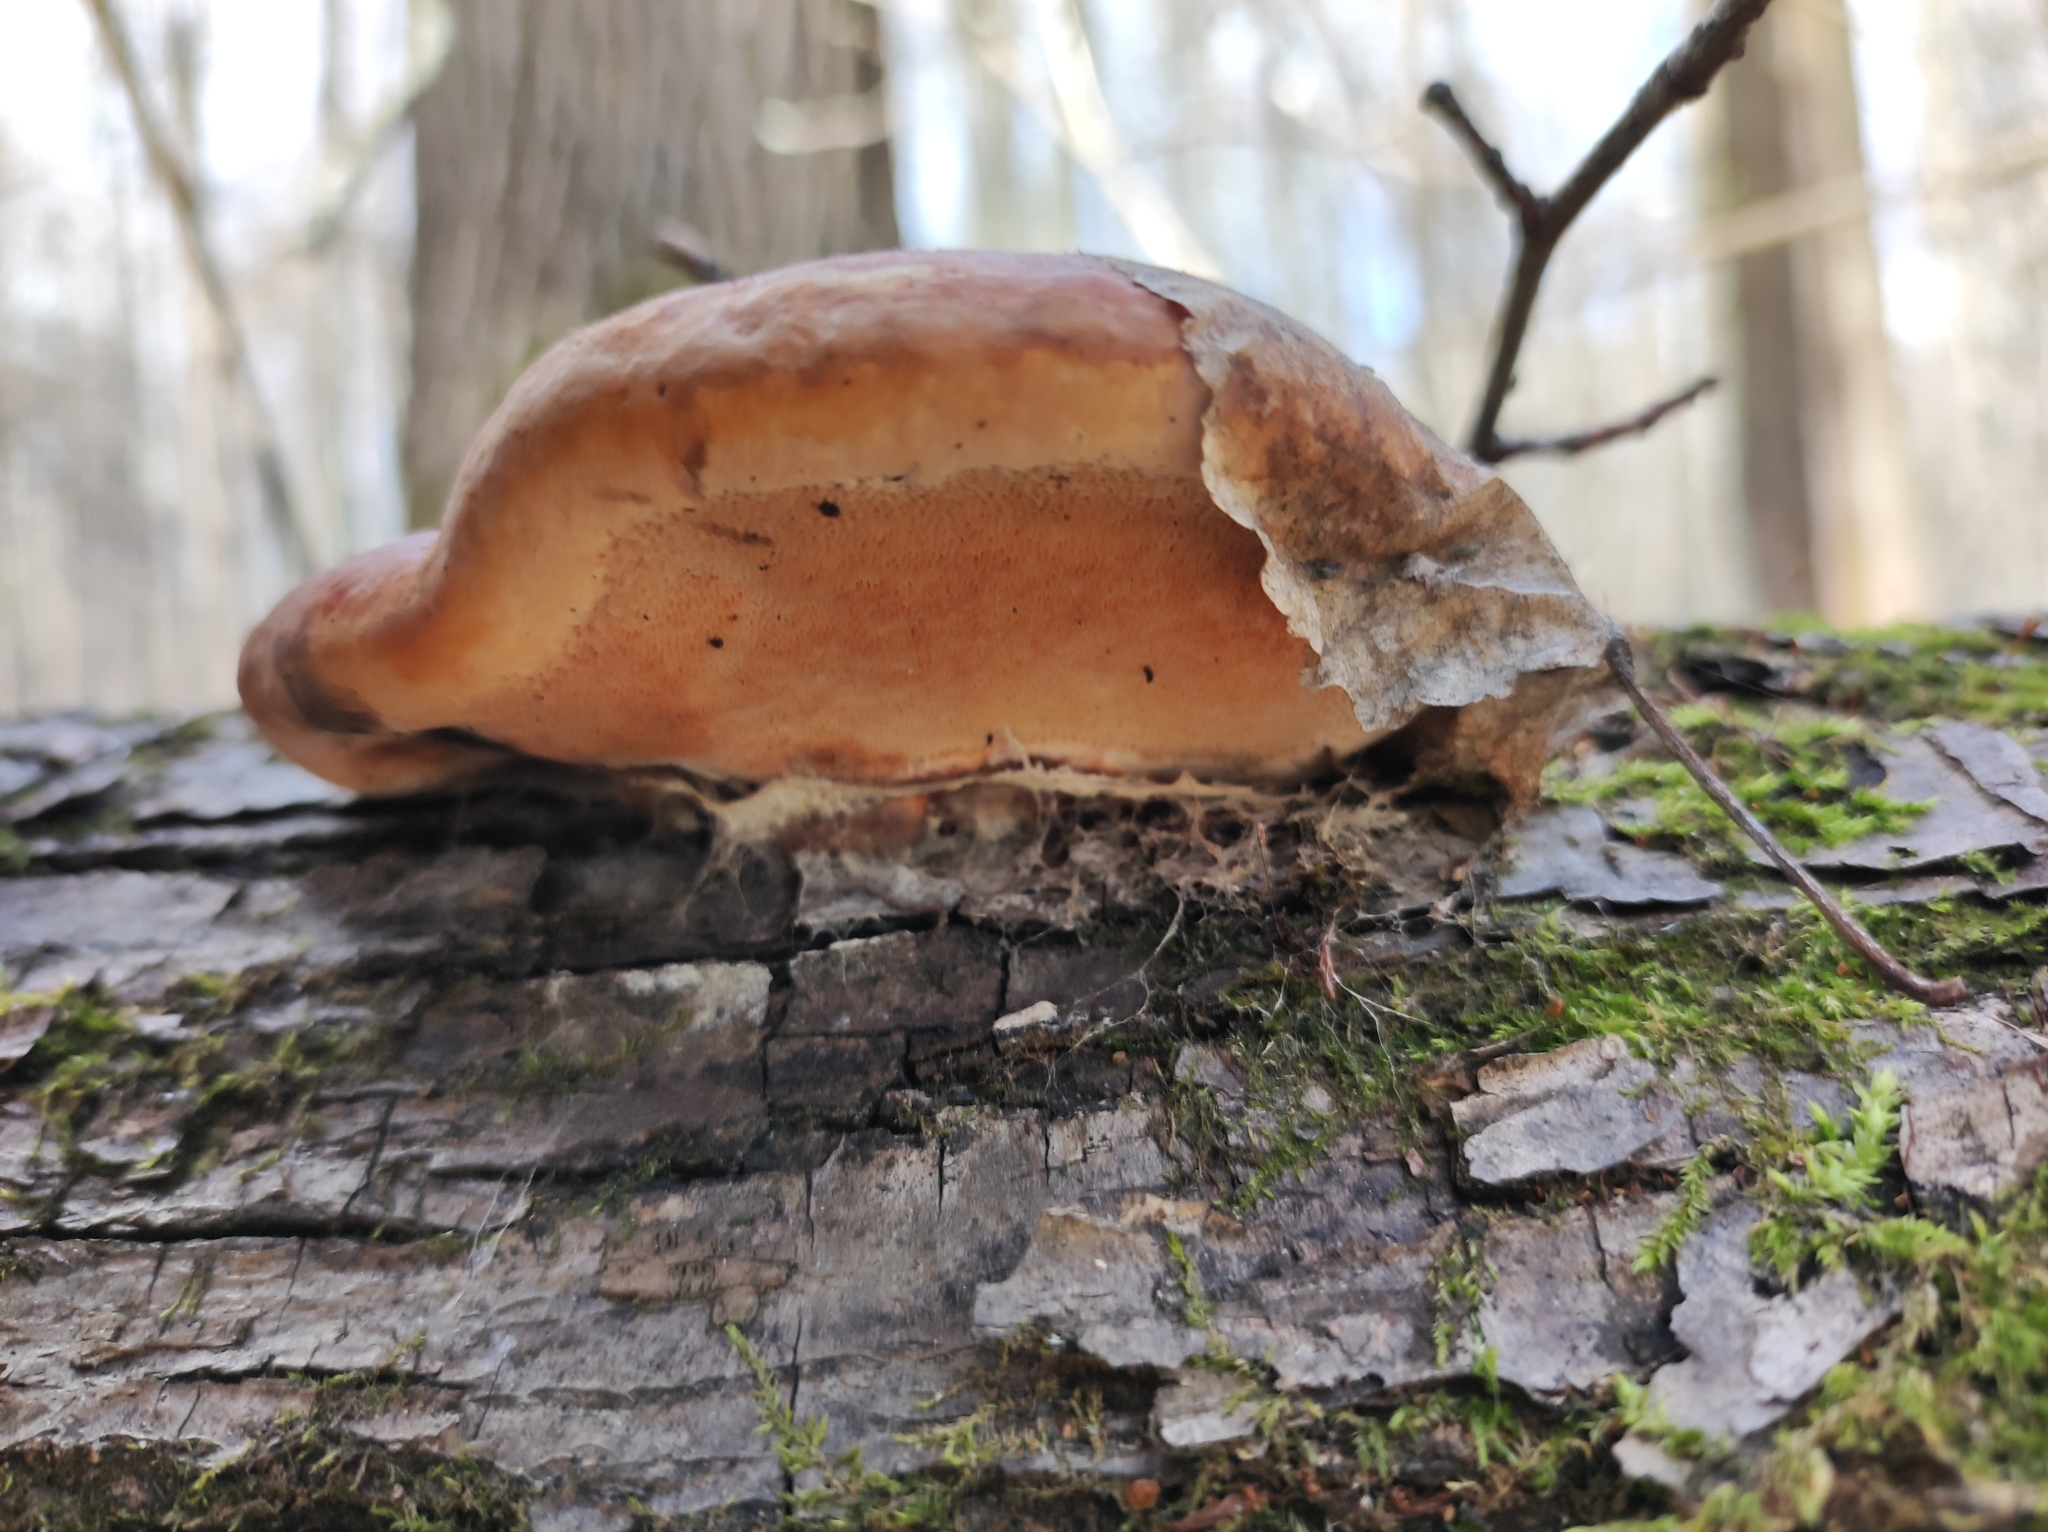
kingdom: Fungi
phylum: Basidiomycota
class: Agaricomycetes
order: Polyporales
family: Fomitopsidaceae
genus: Fomitopsis
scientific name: Fomitopsis pinicola
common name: Red-belted bracket
